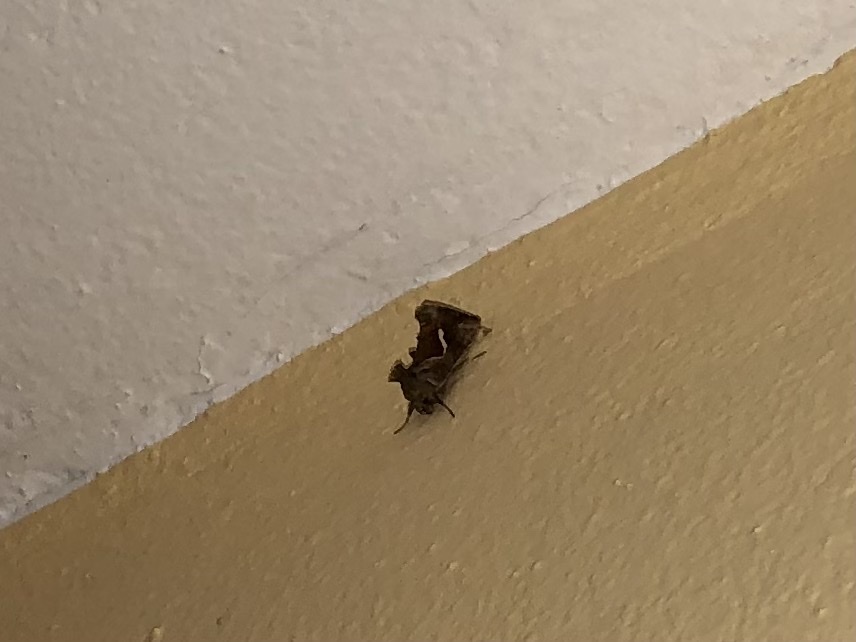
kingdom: Animalia
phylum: Arthropoda
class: Insecta
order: Lepidoptera
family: Noctuidae
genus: Macdunnoughia
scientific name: Macdunnoughia confusa
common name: Dewick's plusia
